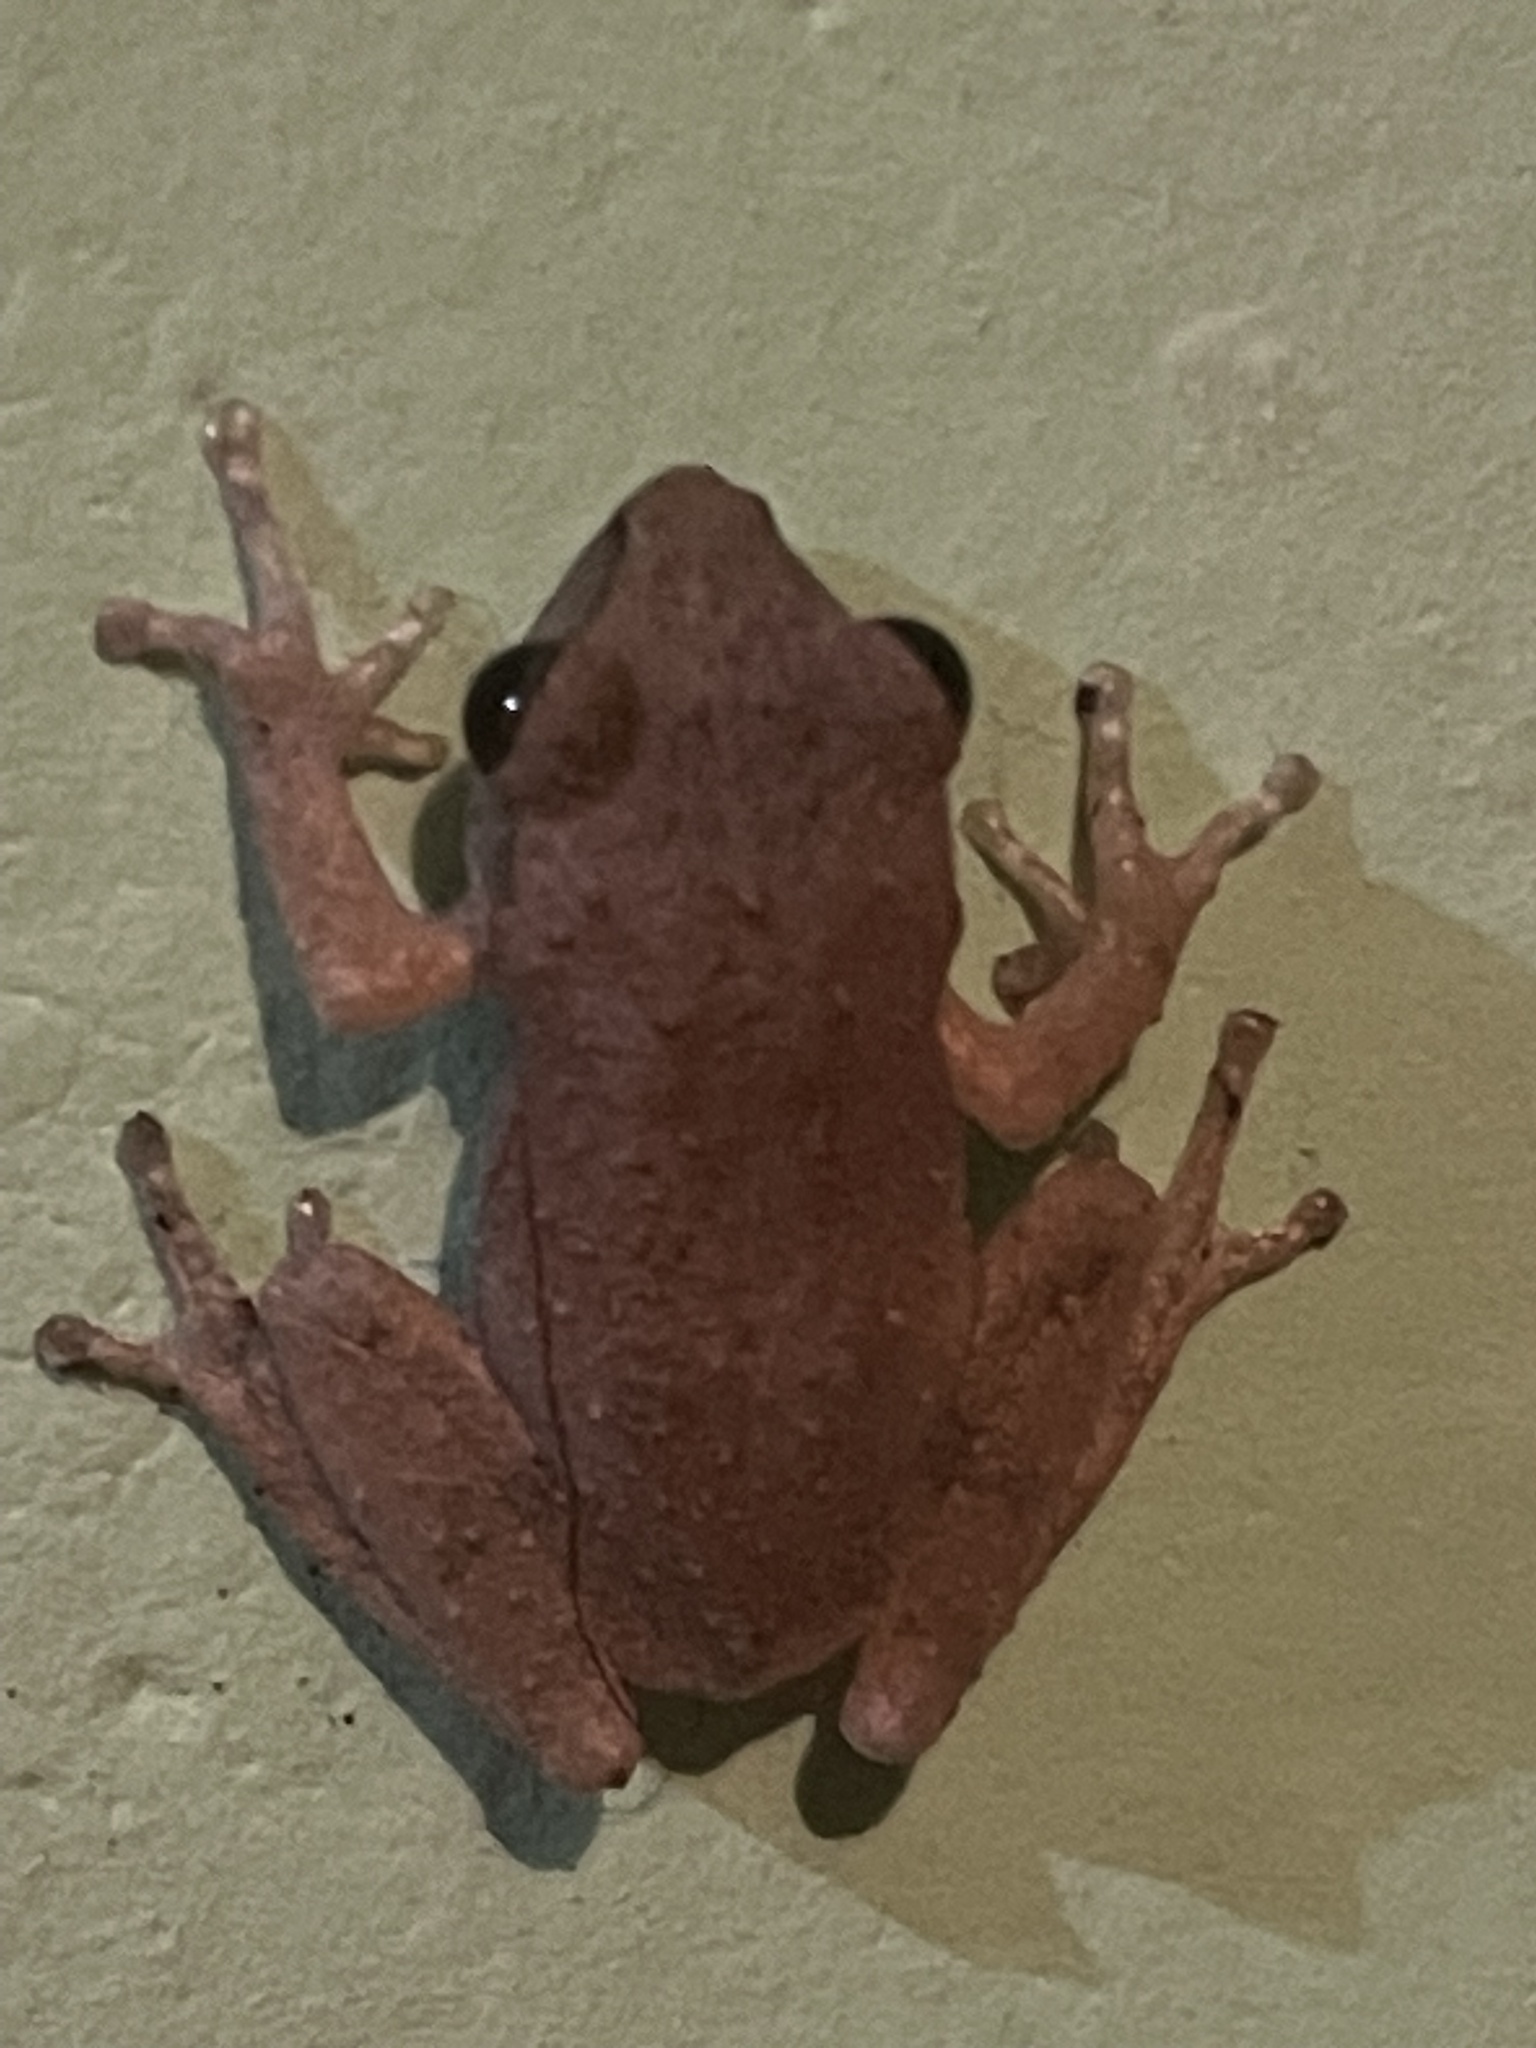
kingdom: Animalia
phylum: Chordata
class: Amphibia
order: Anura
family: Rhacophoridae
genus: Polypedates
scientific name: Polypedates maculatus
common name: Himalayan tree frog
